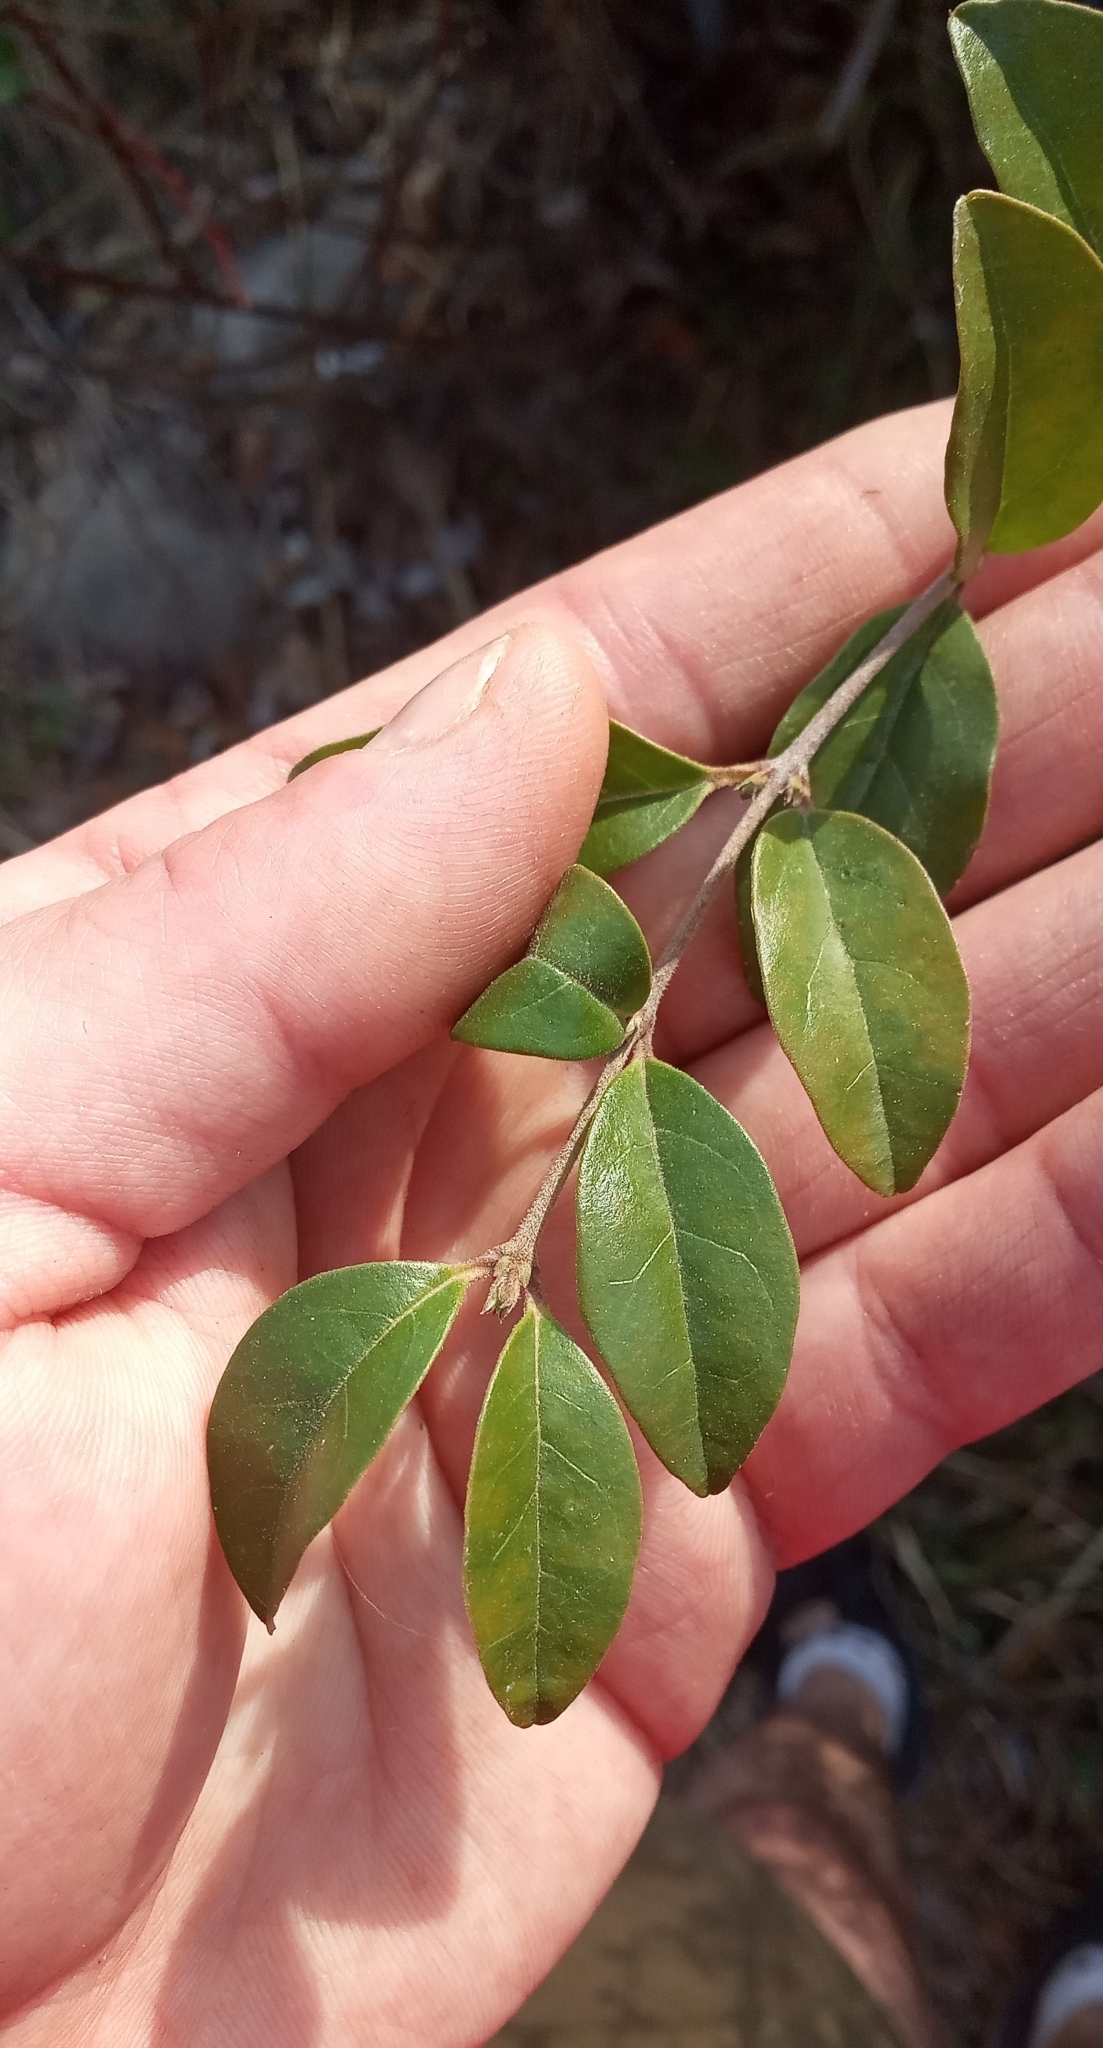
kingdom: Plantae
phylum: Tracheophyta
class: Magnoliopsida
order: Lamiales
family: Oleaceae
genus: Ligustrum
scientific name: Ligustrum sinense
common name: Chinese privet
